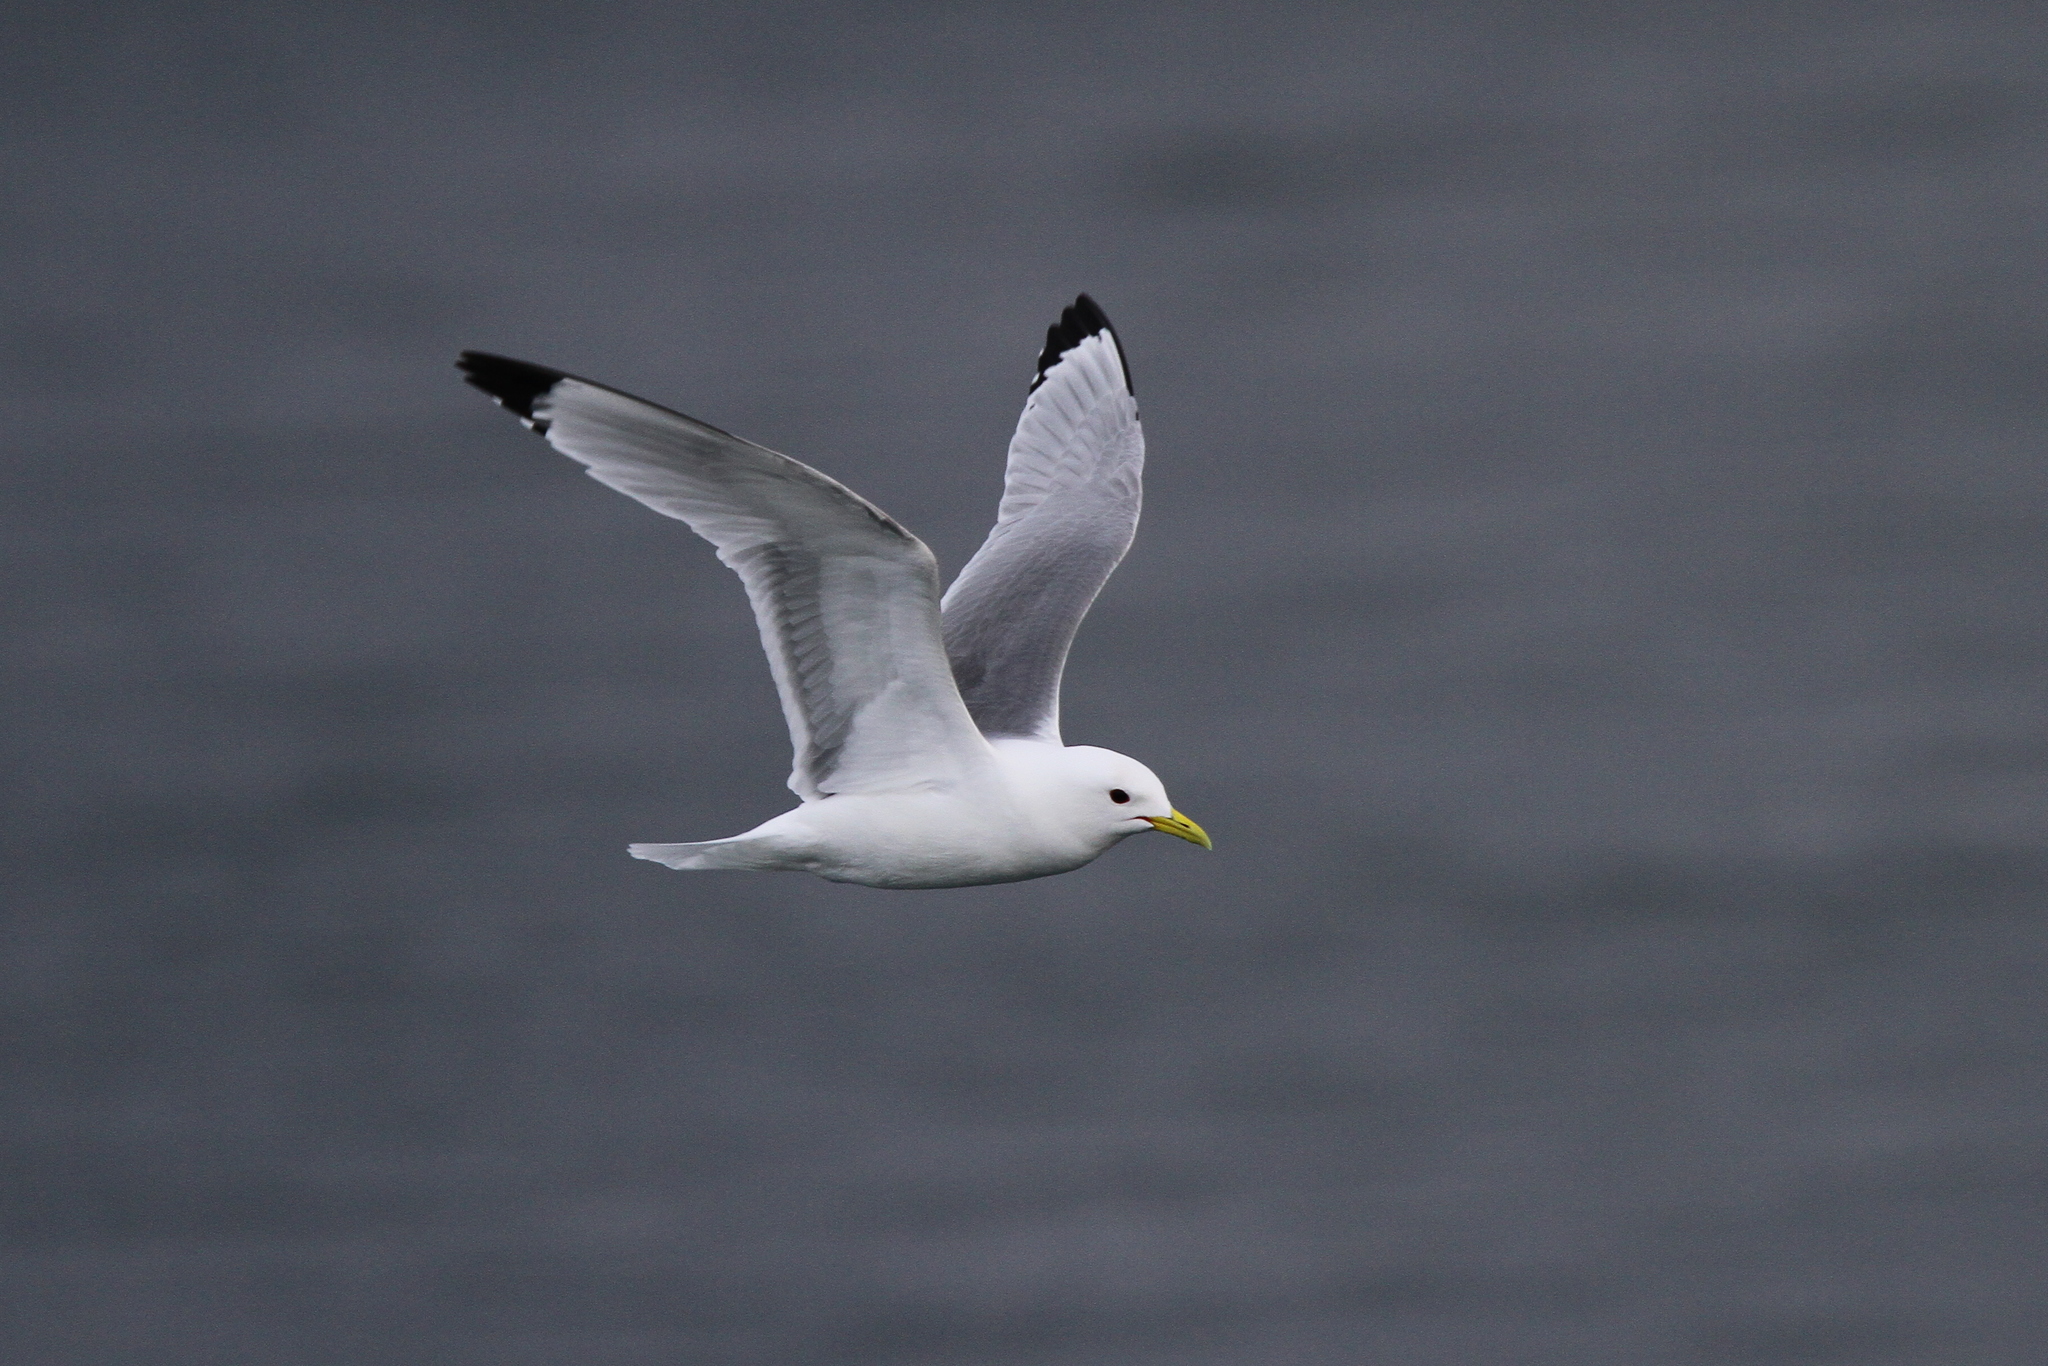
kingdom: Animalia
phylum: Chordata
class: Aves
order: Charadriiformes
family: Laridae
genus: Rissa
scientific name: Rissa tridactyla
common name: Black-legged kittiwake
